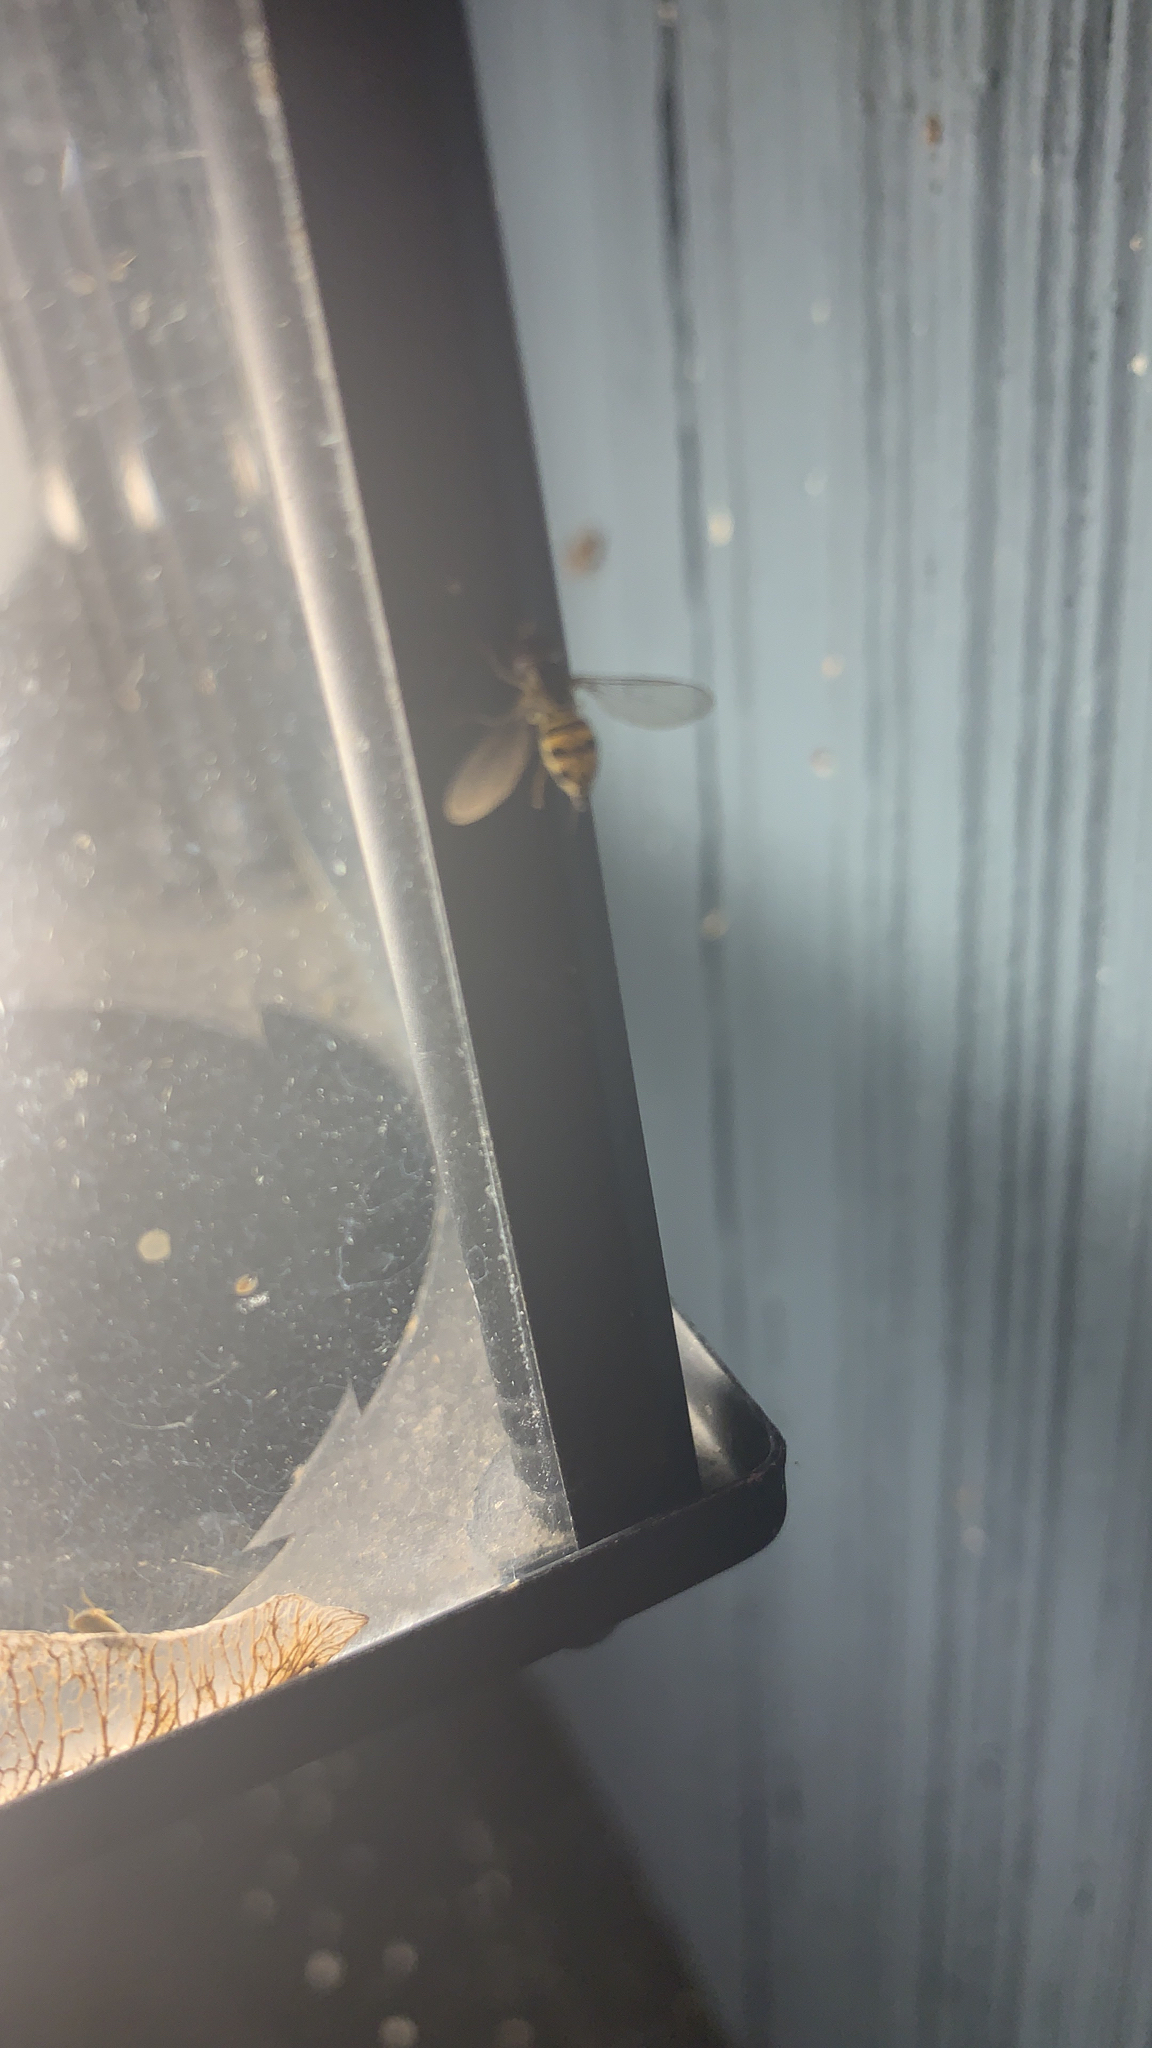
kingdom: Animalia
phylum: Arthropoda
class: Insecta
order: Diptera
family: Syrphidae
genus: Toxomerus
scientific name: Toxomerus geminatus
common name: Eastern calligrapher
